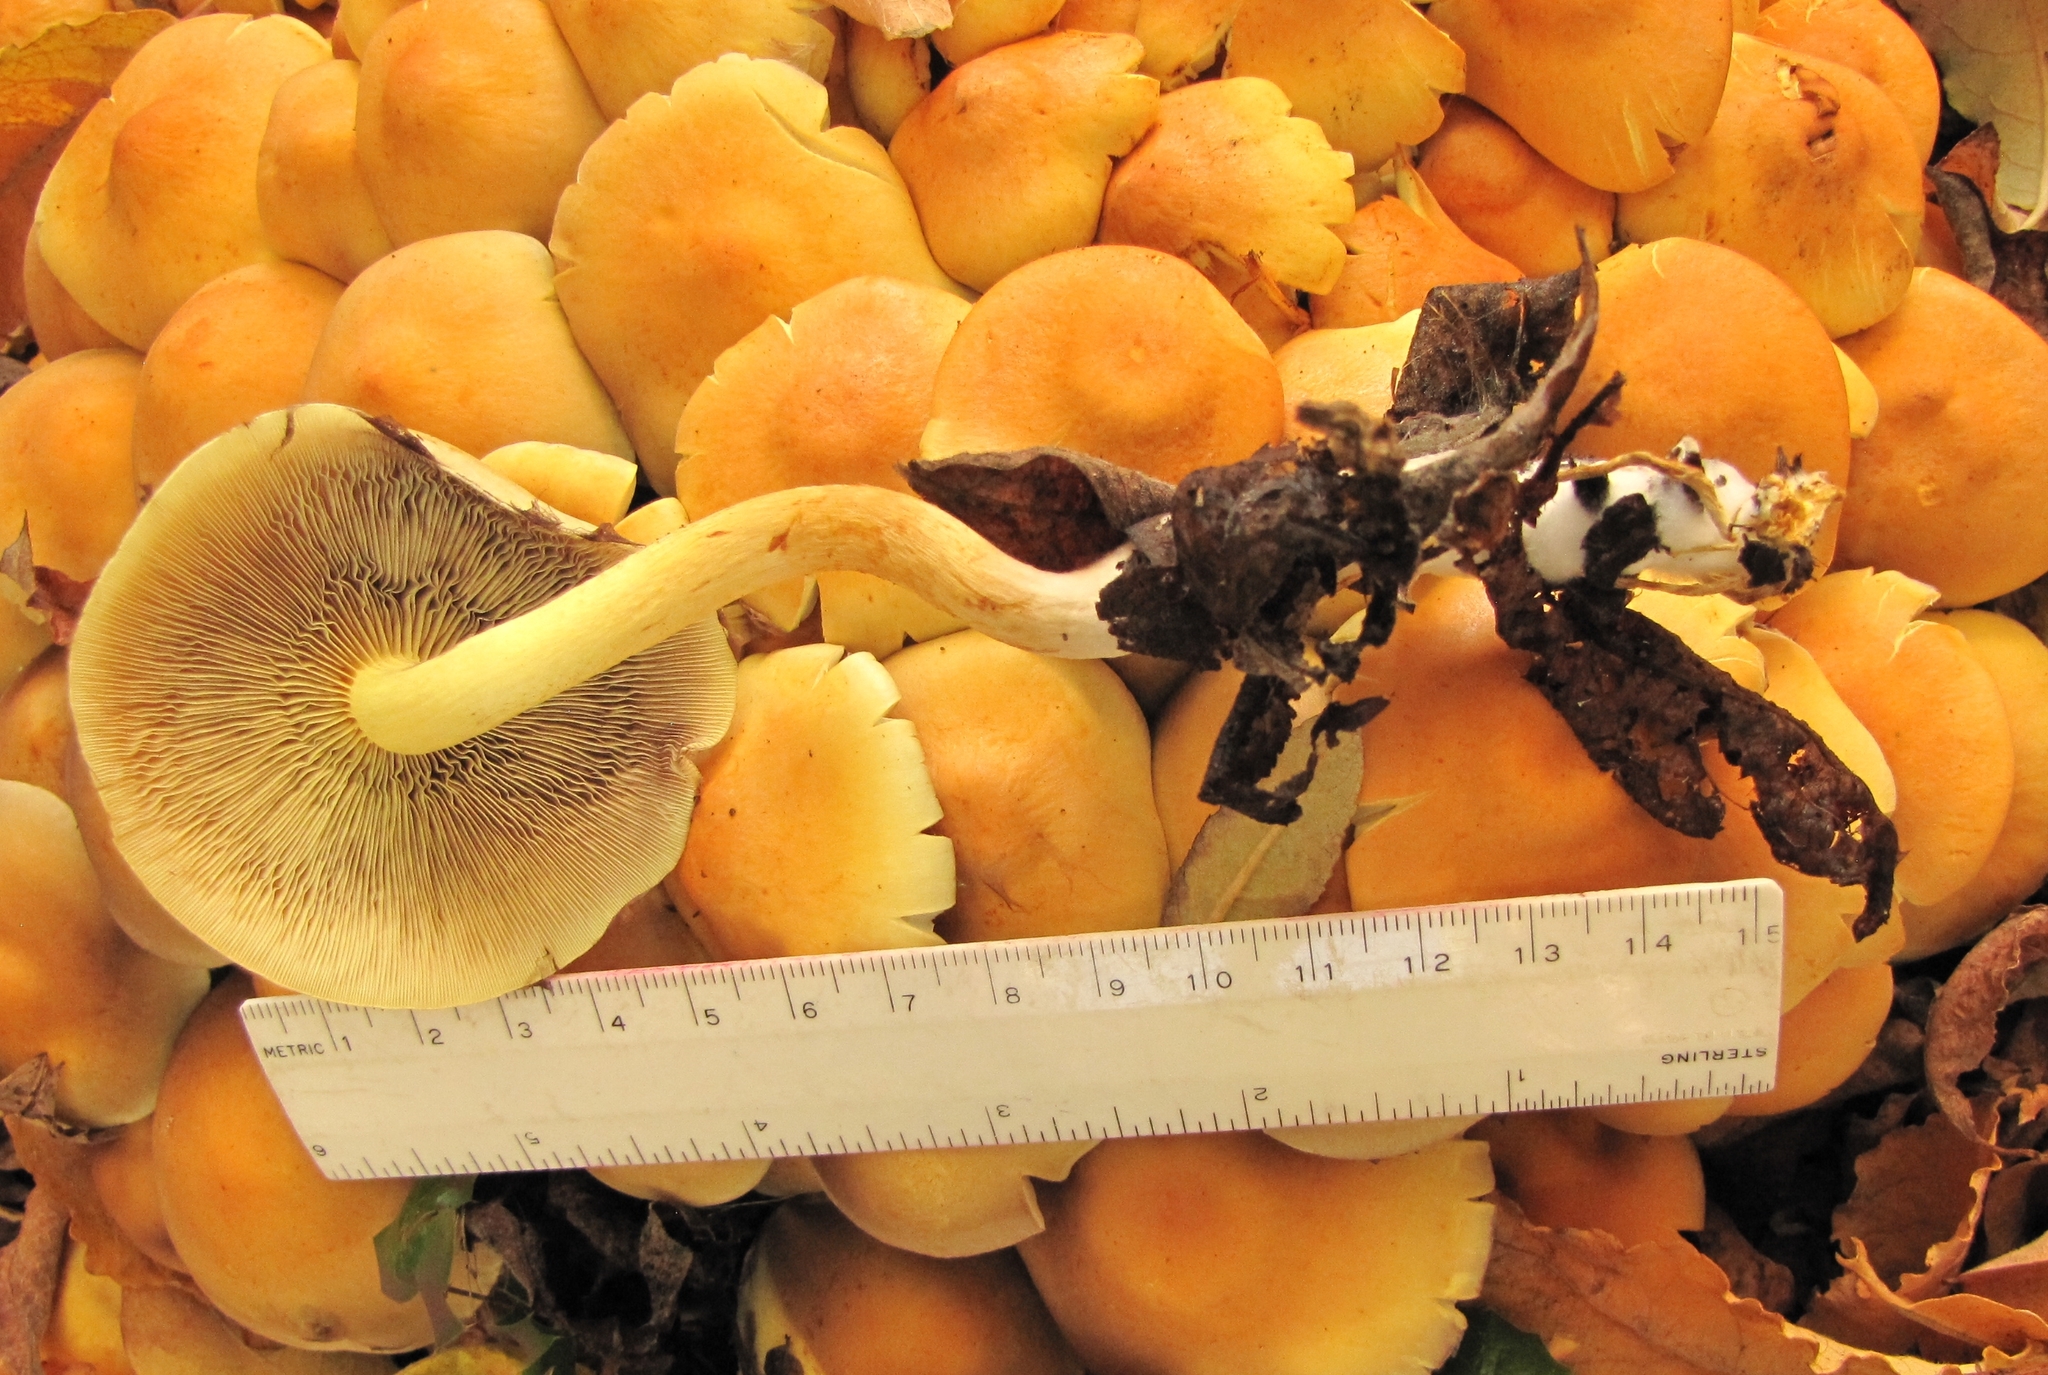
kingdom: Fungi
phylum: Basidiomycota
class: Agaricomycetes
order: Agaricales
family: Strophariaceae
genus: Hypholoma
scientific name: Hypholoma fasciculare
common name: Sulphur tuft
